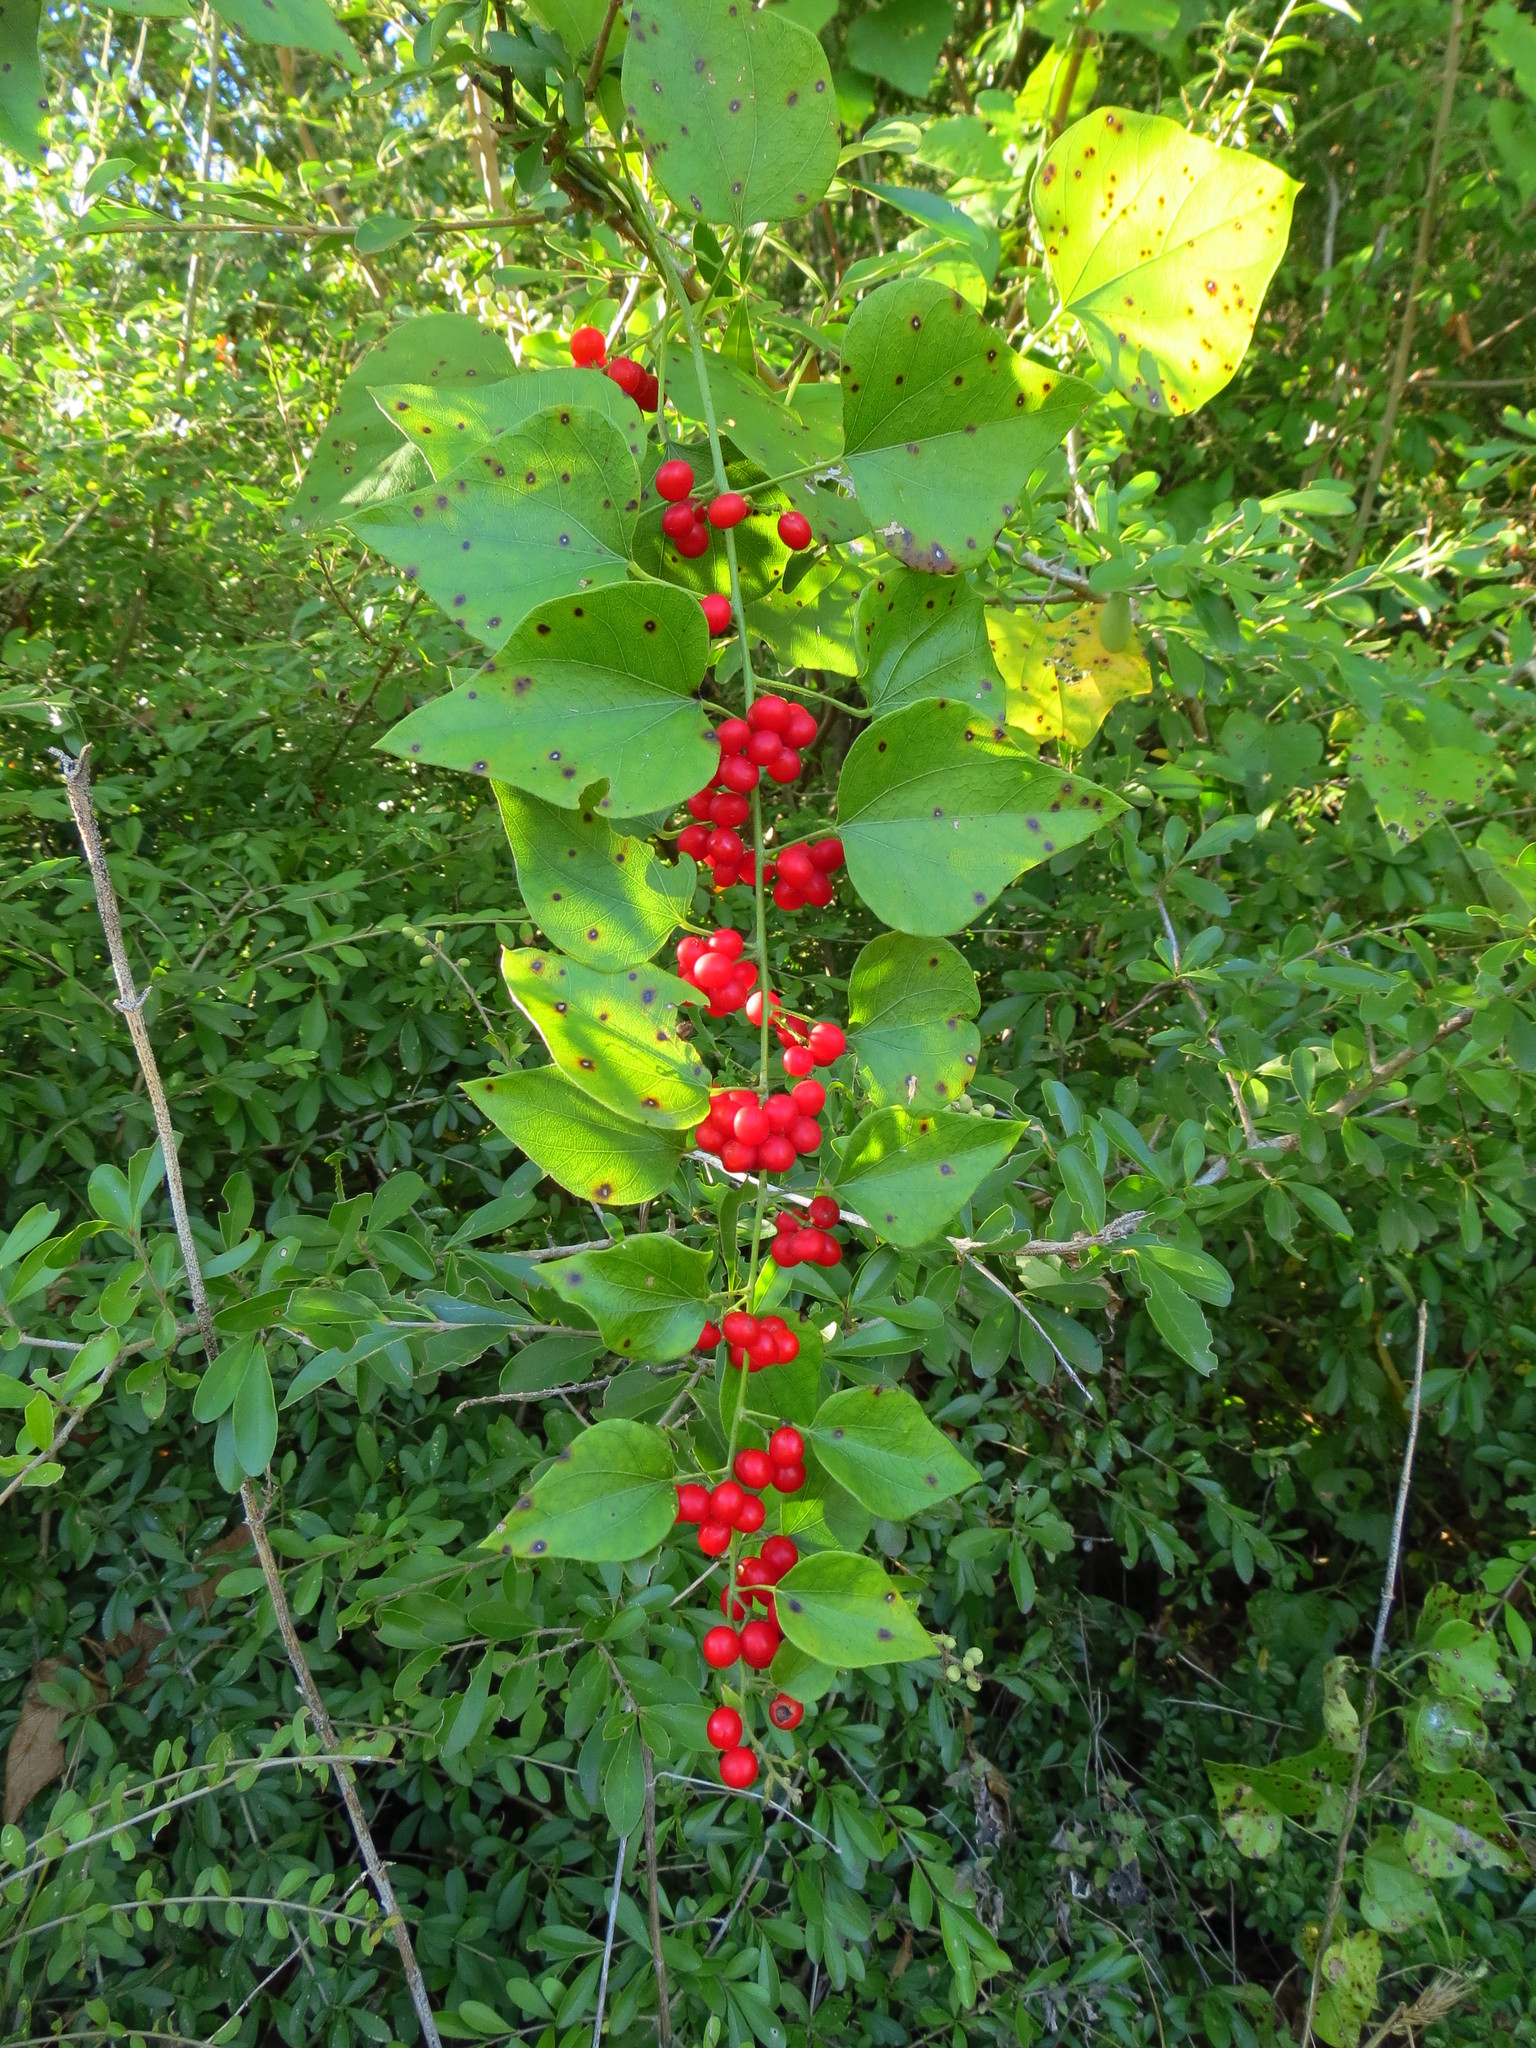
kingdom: Plantae
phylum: Tracheophyta
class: Magnoliopsida
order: Ranunculales
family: Menispermaceae
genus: Cocculus
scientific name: Cocculus carolinus
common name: Carolina moonseed
